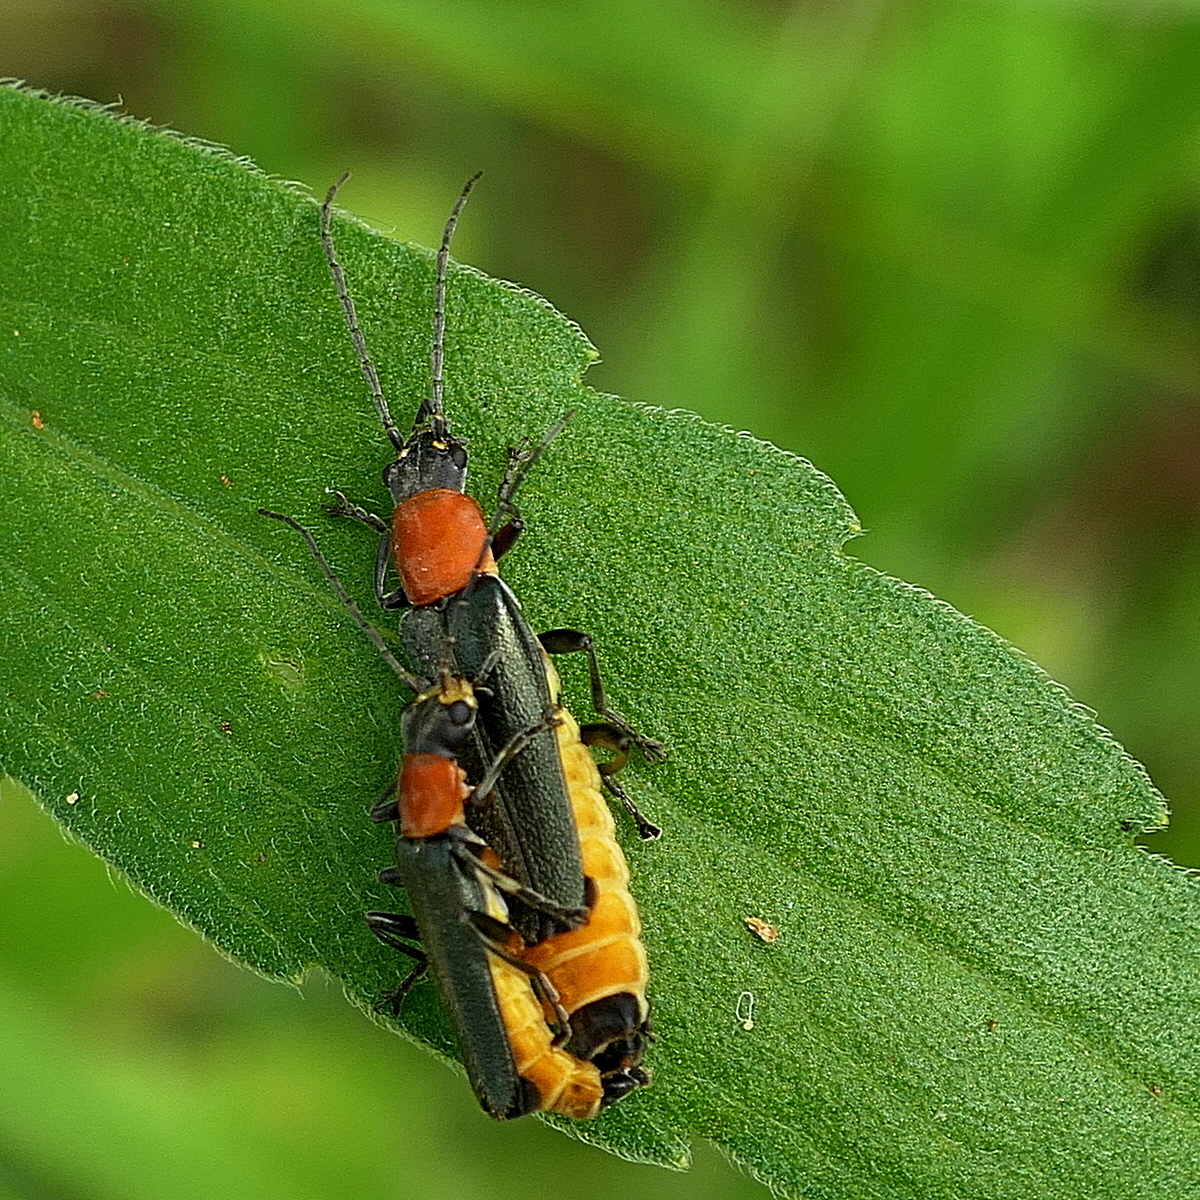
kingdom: Animalia
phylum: Arthropoda
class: Insecta
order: Coleoptera
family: Cantharidae
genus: Chauliognathus
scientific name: Chauliognathus
